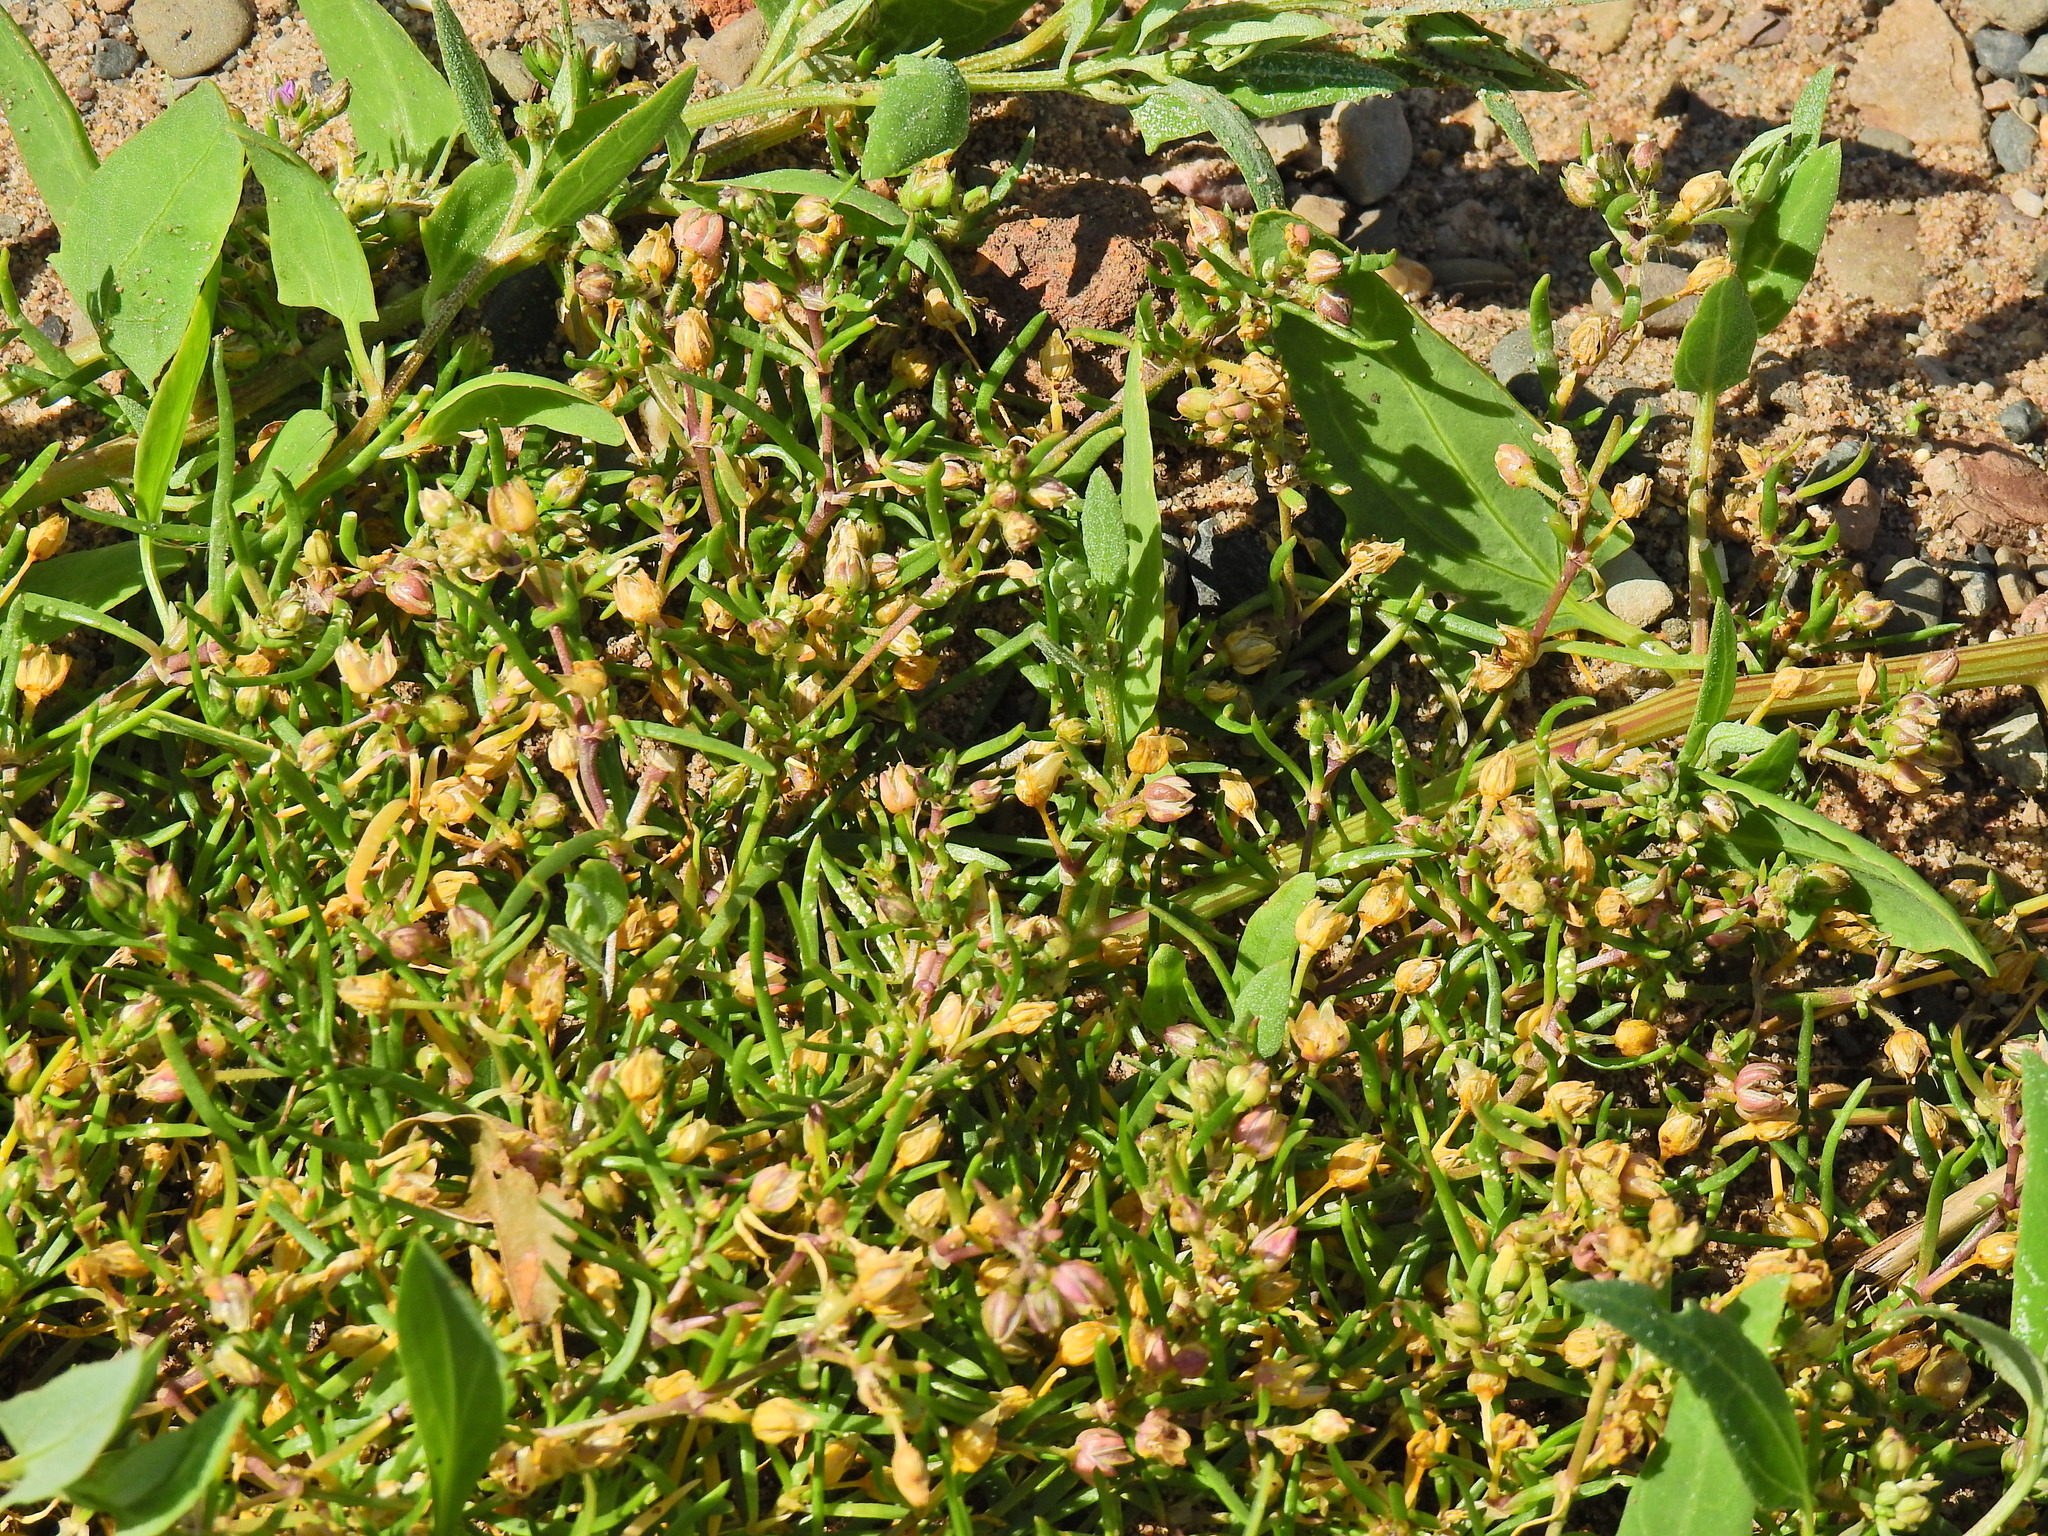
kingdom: Plantae
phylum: Tracheophyta
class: Magnoliopsida
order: Caryophyllales
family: Caryophyllaceae
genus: Spergularia
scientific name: Spergularia marina
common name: Lesser sea-spurrey
